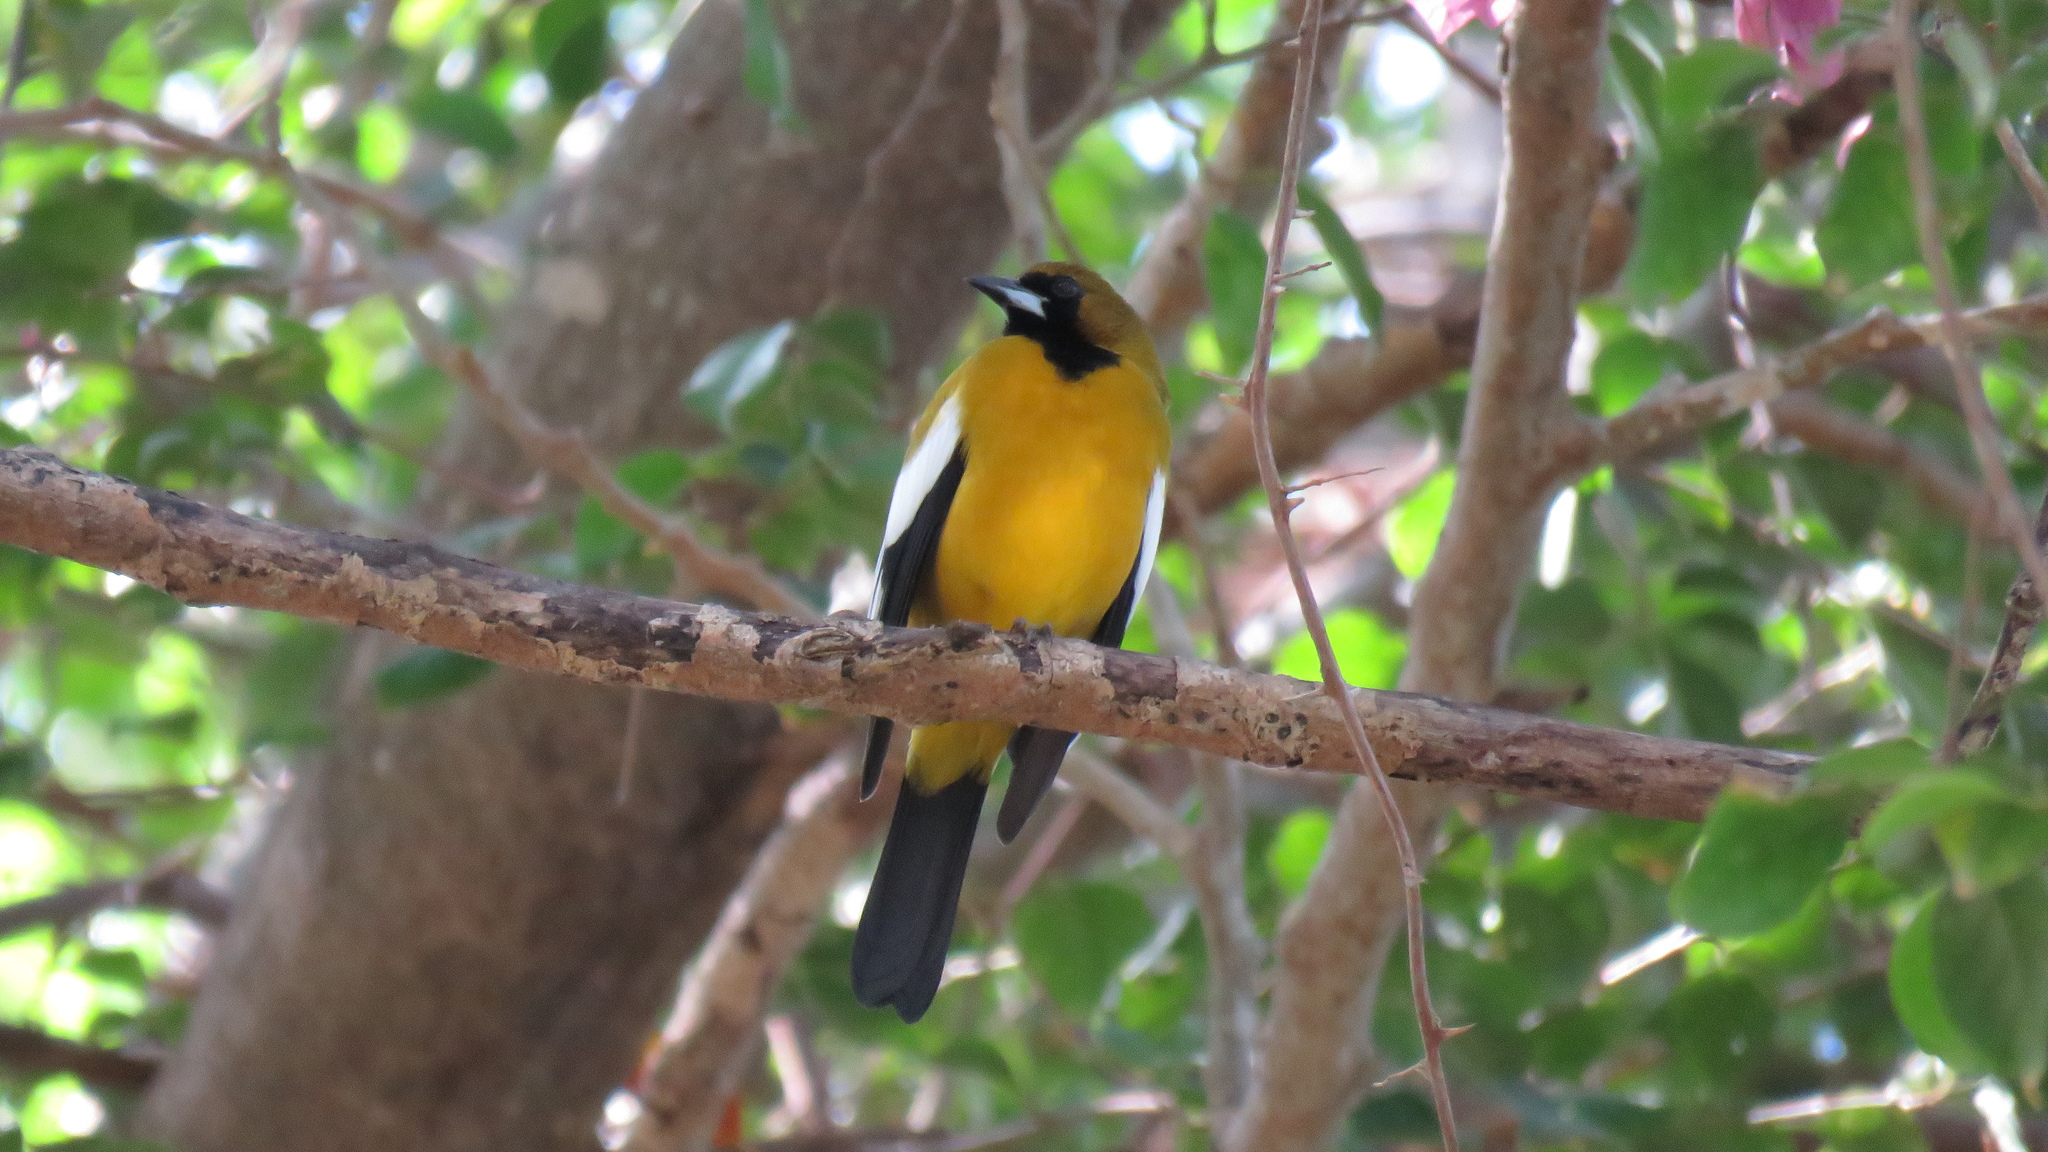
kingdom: Animalia
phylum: Chordata
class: Aves
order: Passeriformes
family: Icteridae
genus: Icterus
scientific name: Icterus leucopteryx
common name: Jamaican oriole
